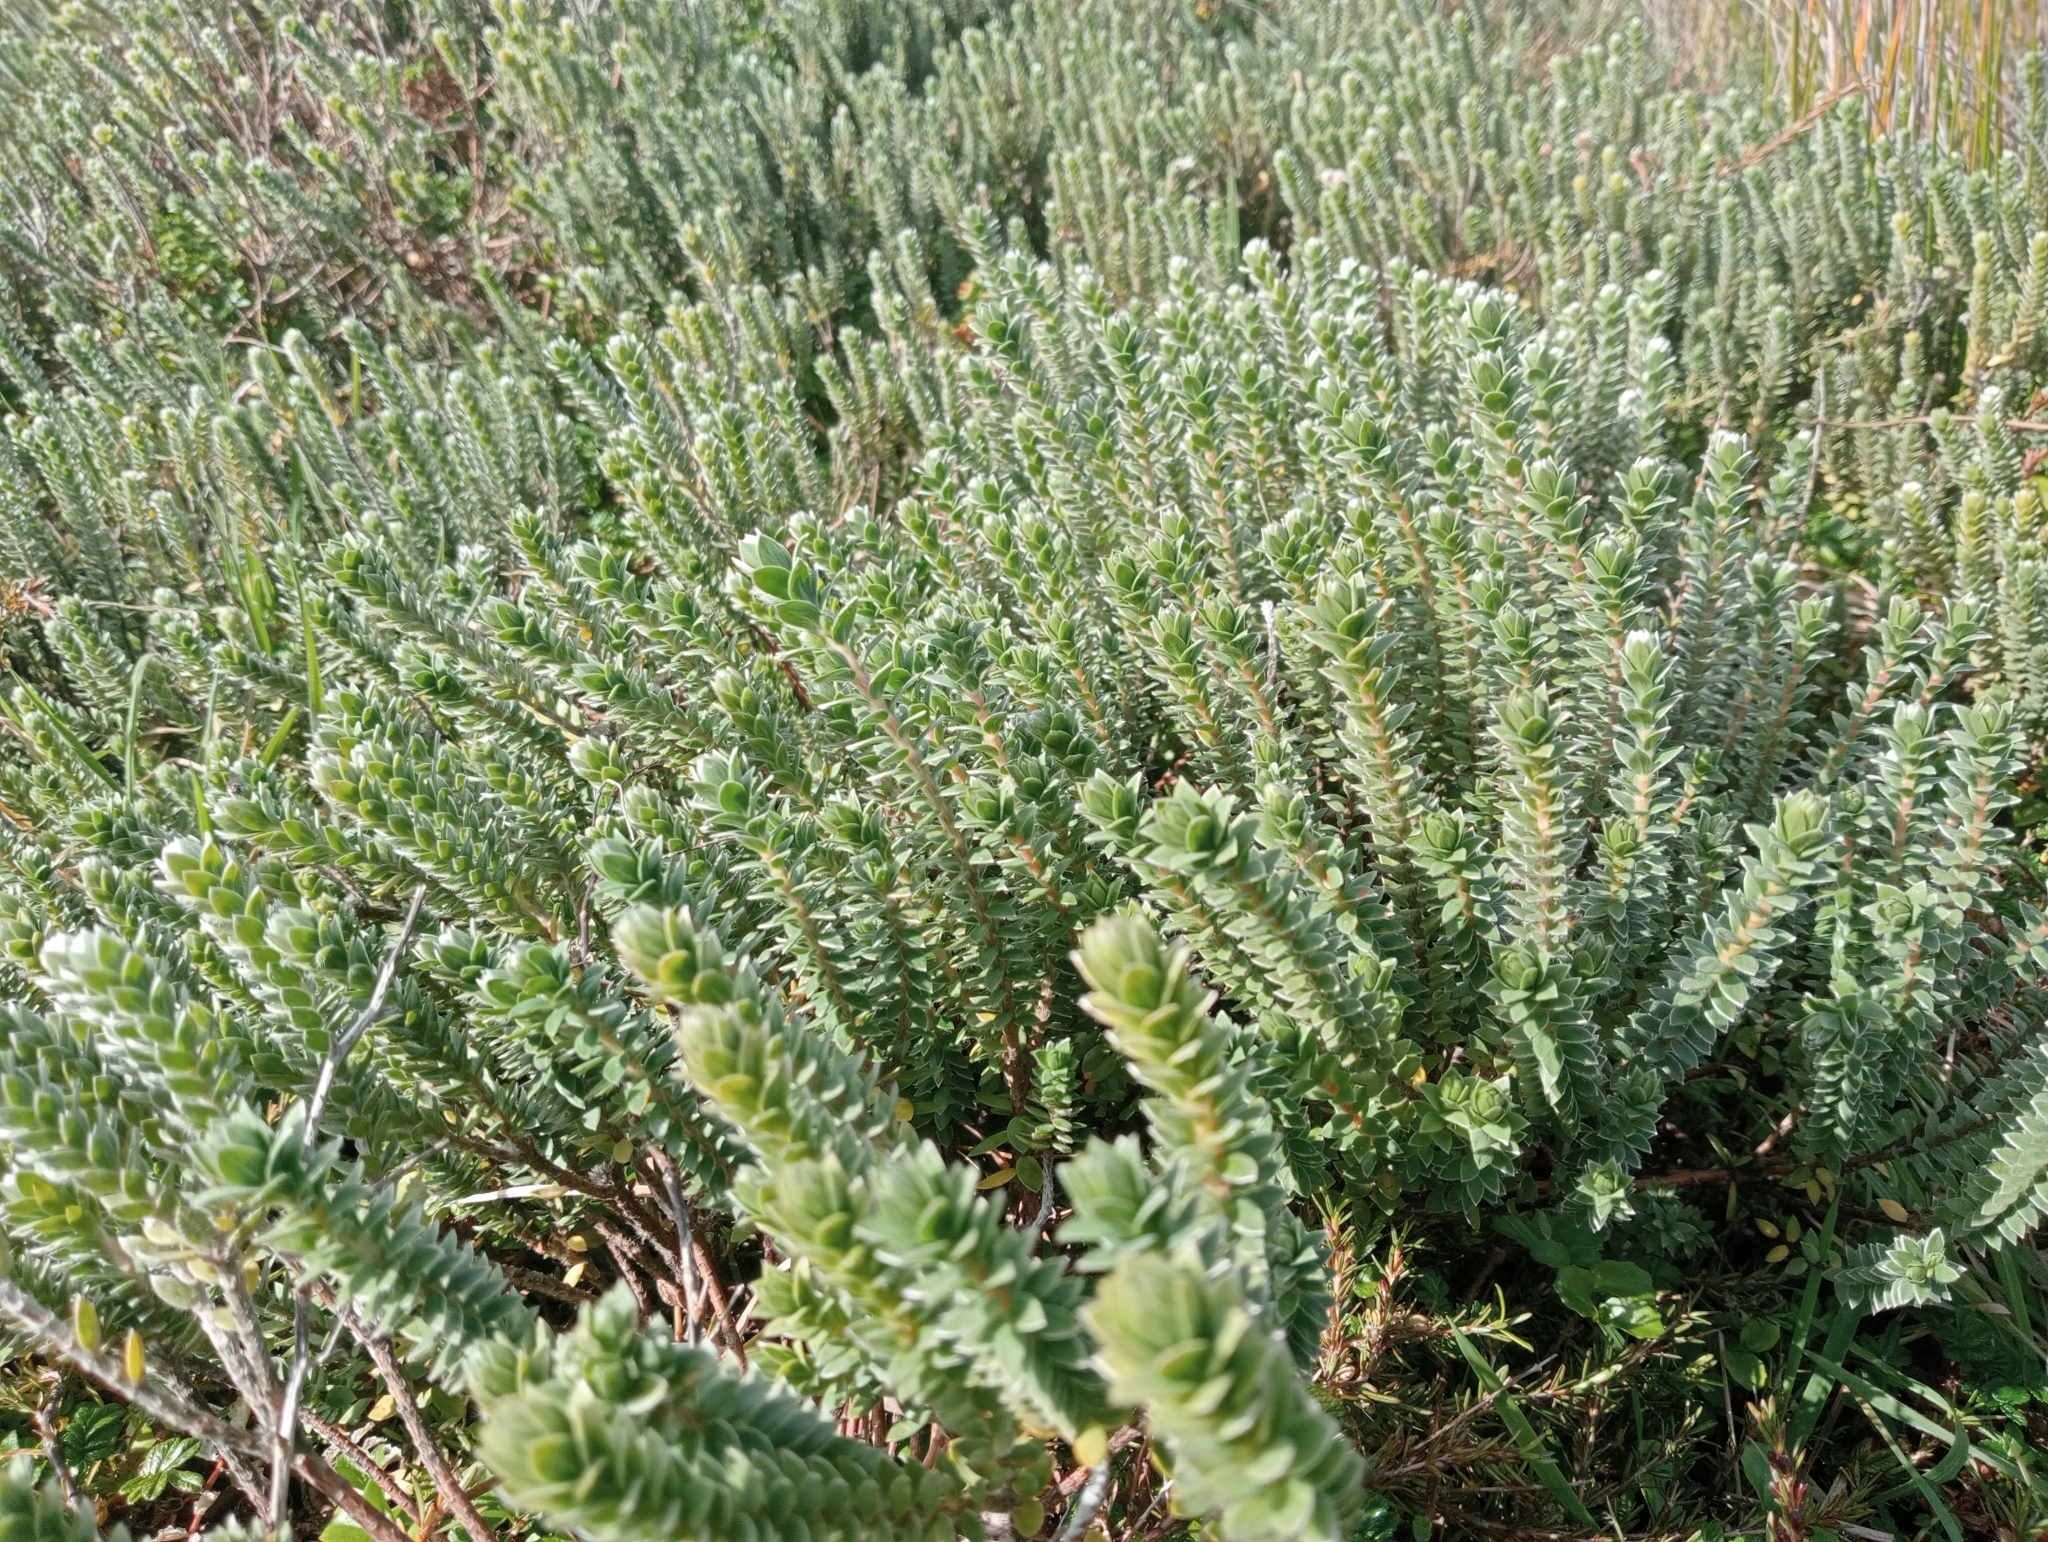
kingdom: Plantae
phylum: Tracheophyta
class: Magnoliopsida
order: Malvales
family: Thymelaeaceae
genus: Pimelea
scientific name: Pimelea villosa
